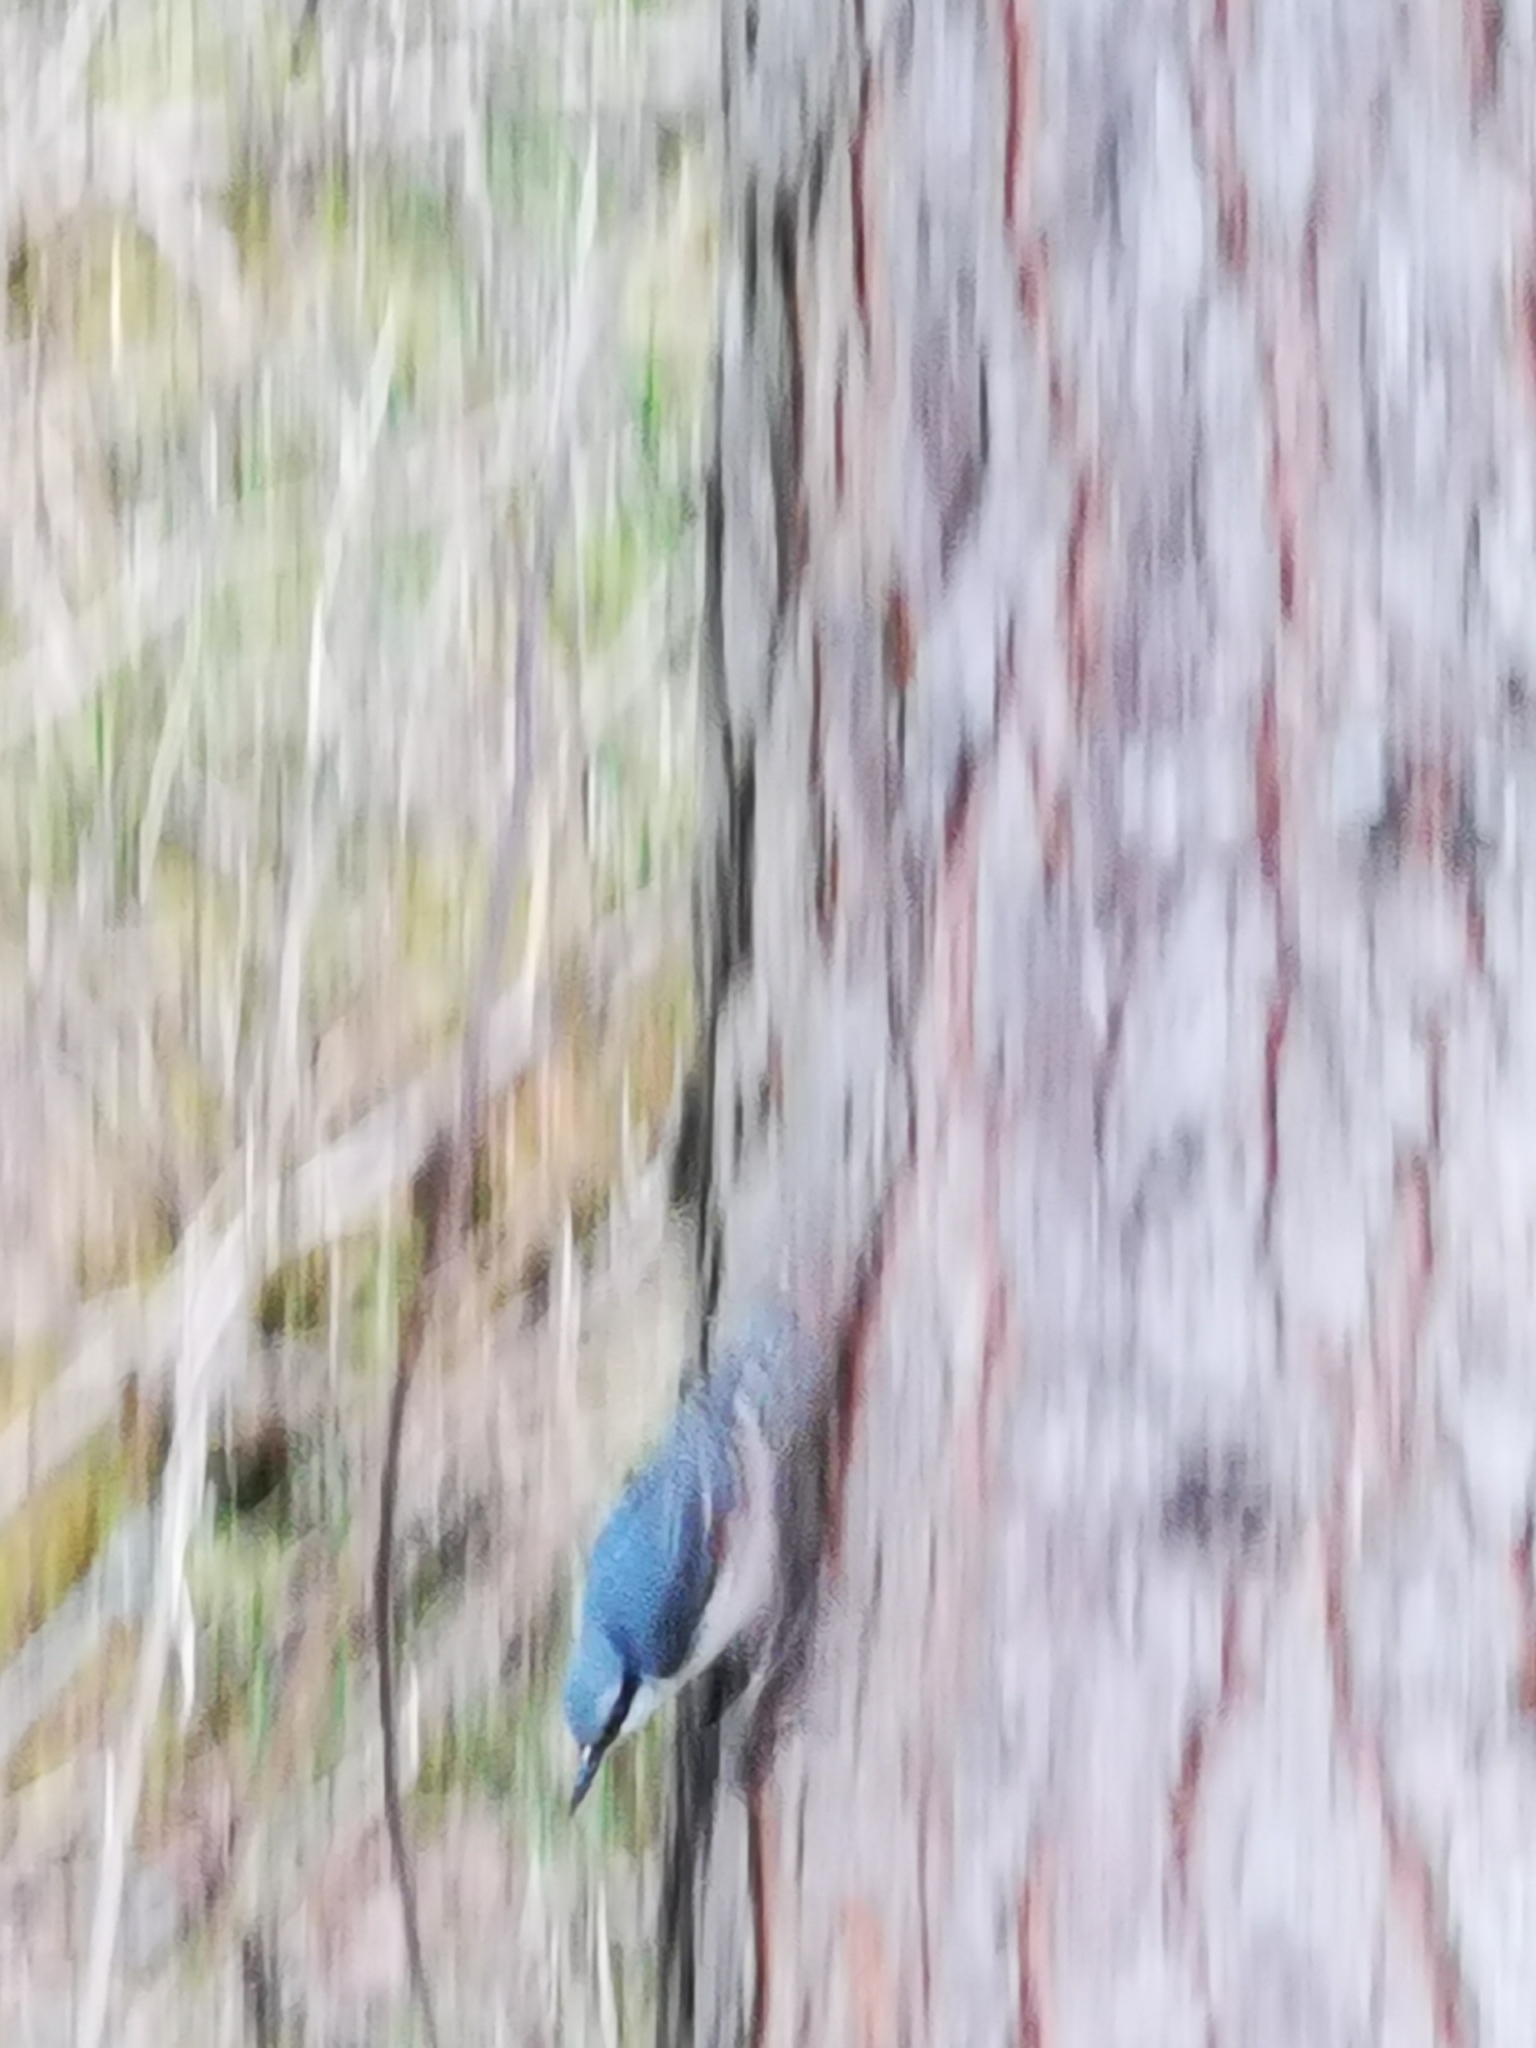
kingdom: Animalia
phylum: Chordata
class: Aves
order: Passeriformes
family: Sittidae
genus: Sitta
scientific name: Sitta europaea
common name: Eurasian nuthatch
